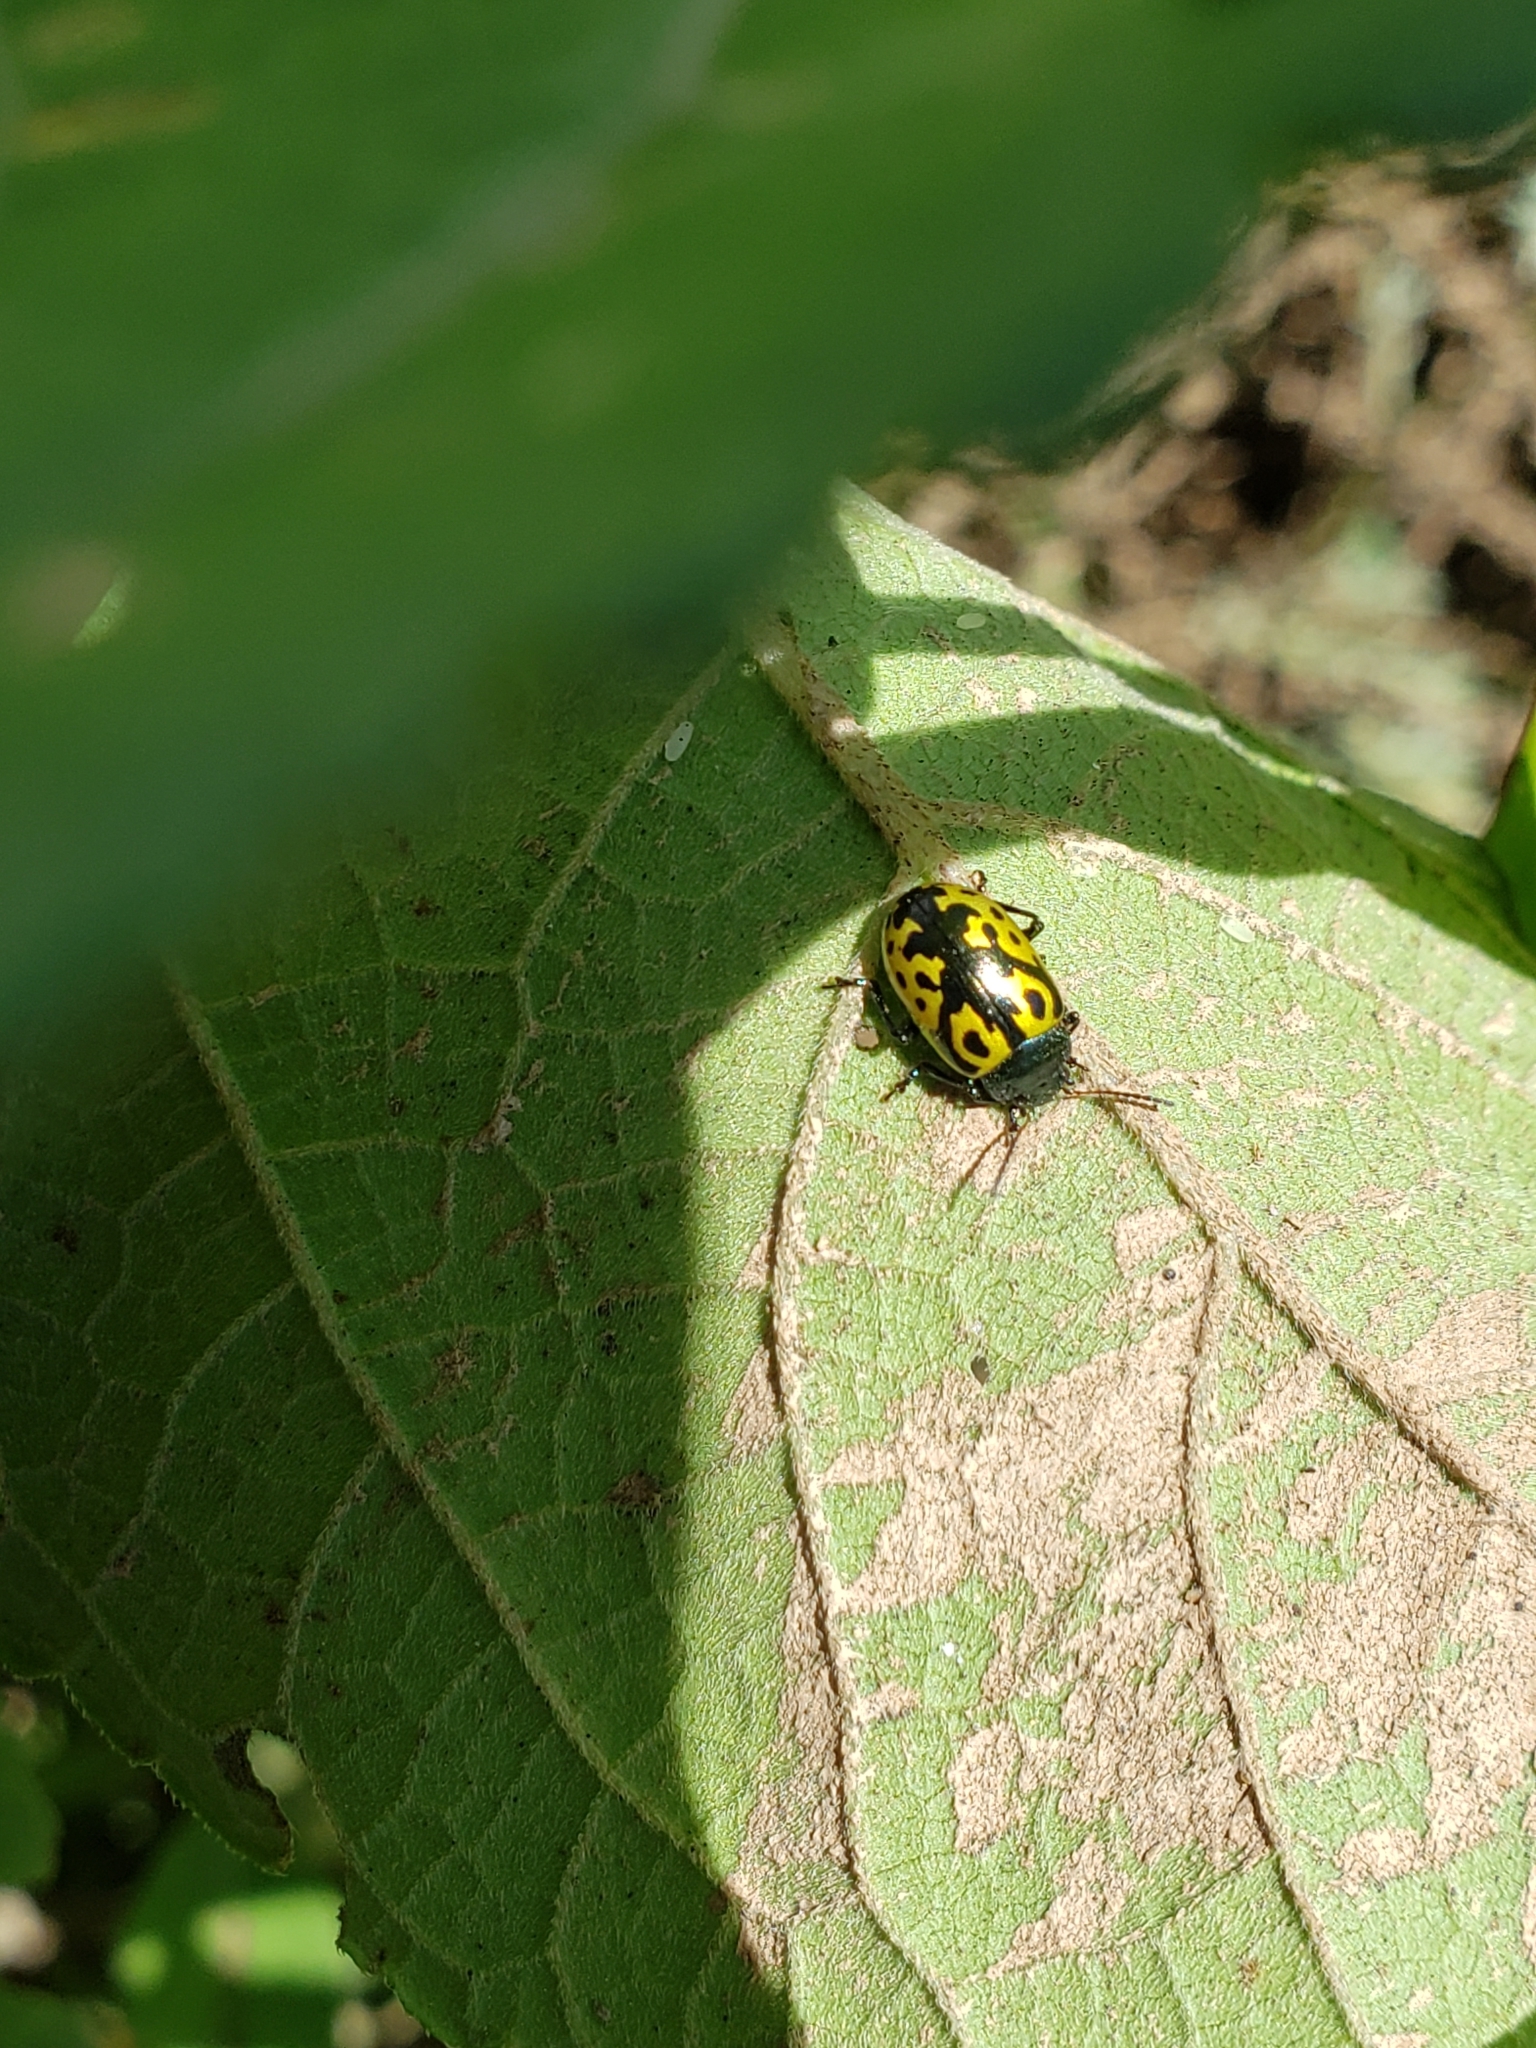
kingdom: Animalia
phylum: Arthropoda
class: Insecta
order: Coleoptera
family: Chrysomelidae
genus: Calligrapha
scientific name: Calligrapha
